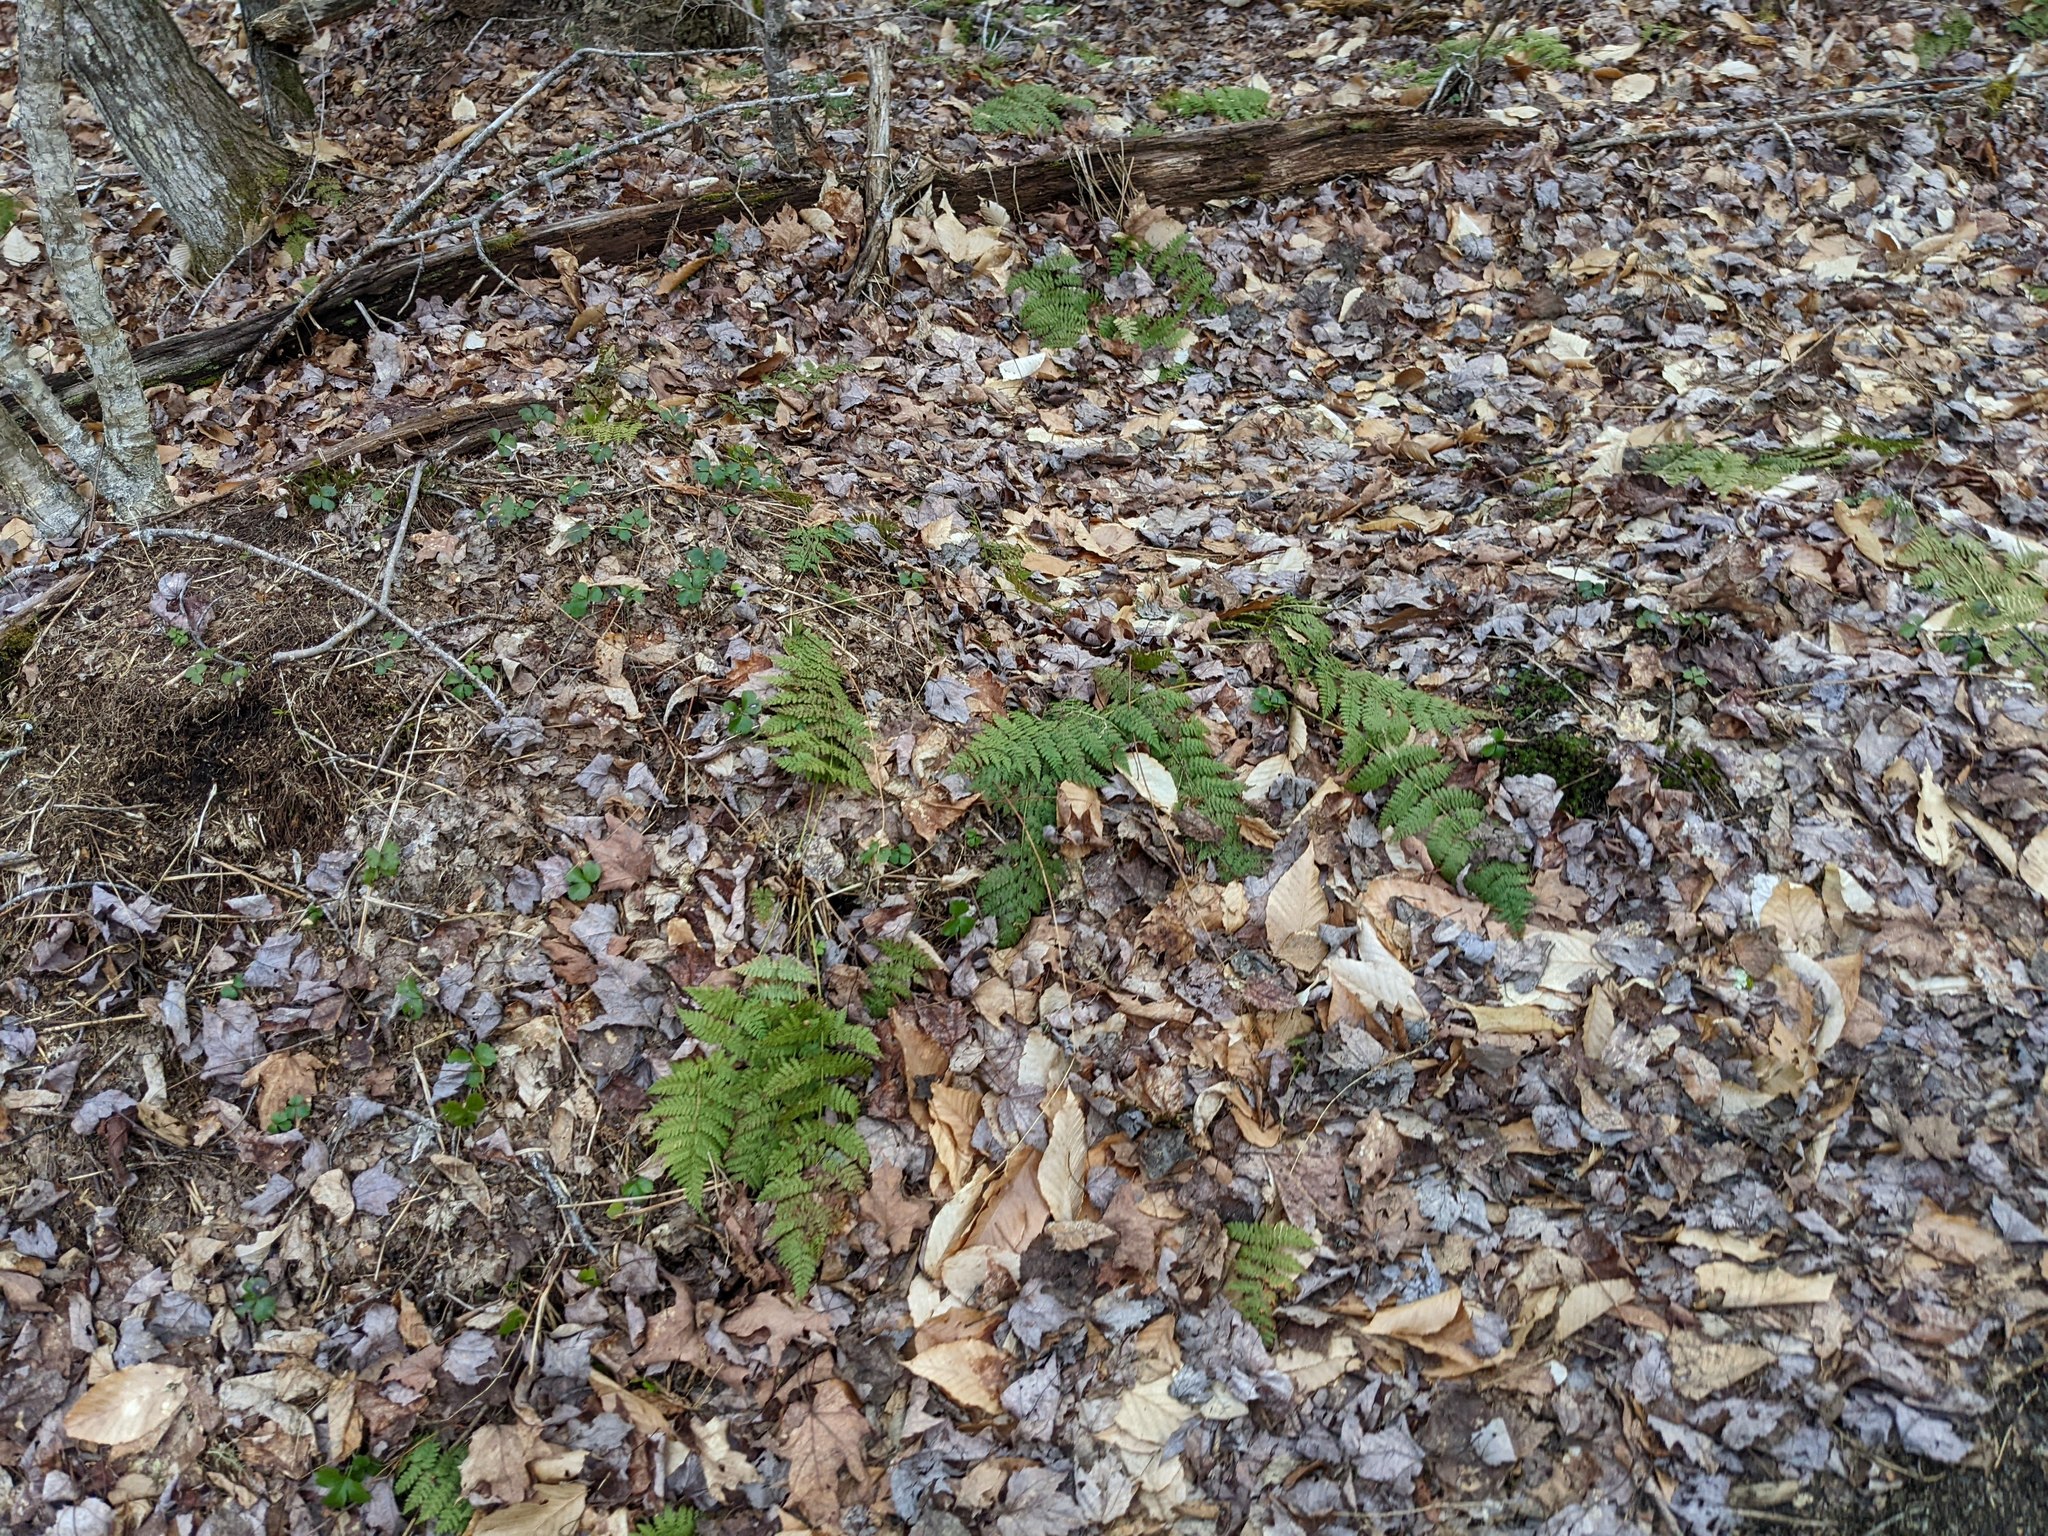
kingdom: Plantae
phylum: Tracheophyta
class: Polypodiopsida
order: Polypodiales
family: Dryopteridaceae
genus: Dryopteris
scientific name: Dryopteris intermedia
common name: Evergreen wood fern
